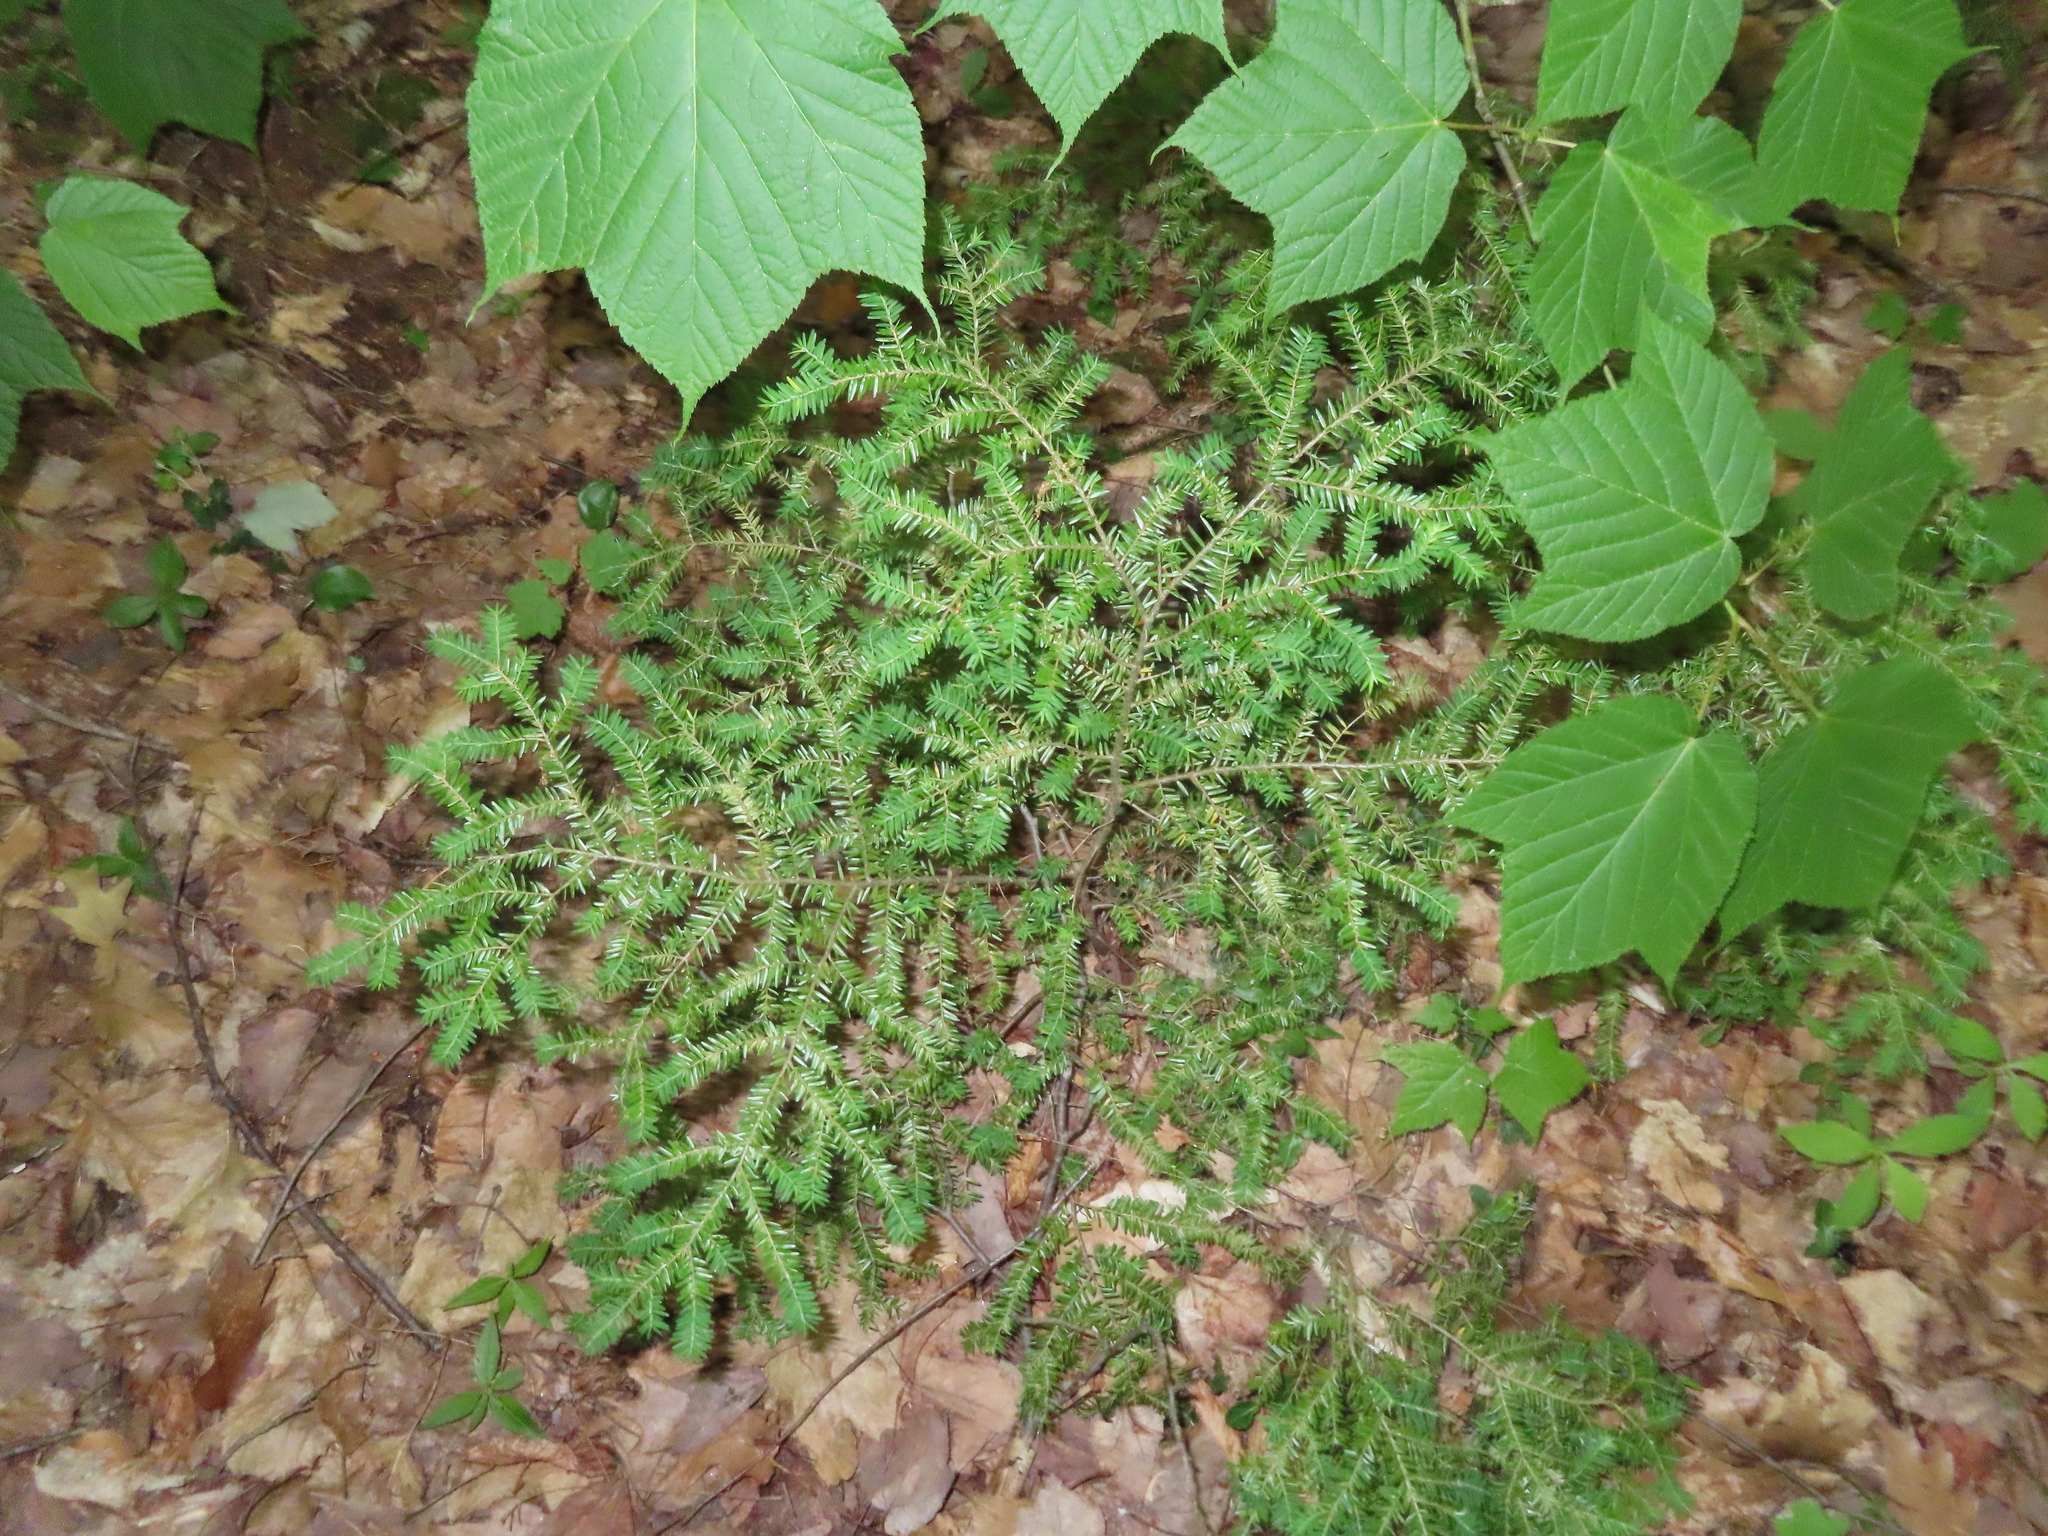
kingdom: Plantae
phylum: Tracheophyta
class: Pinopsida
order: Pinales
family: Pinaceae
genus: Tsuga
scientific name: Tsuga canadensis
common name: Eastern hemlock
